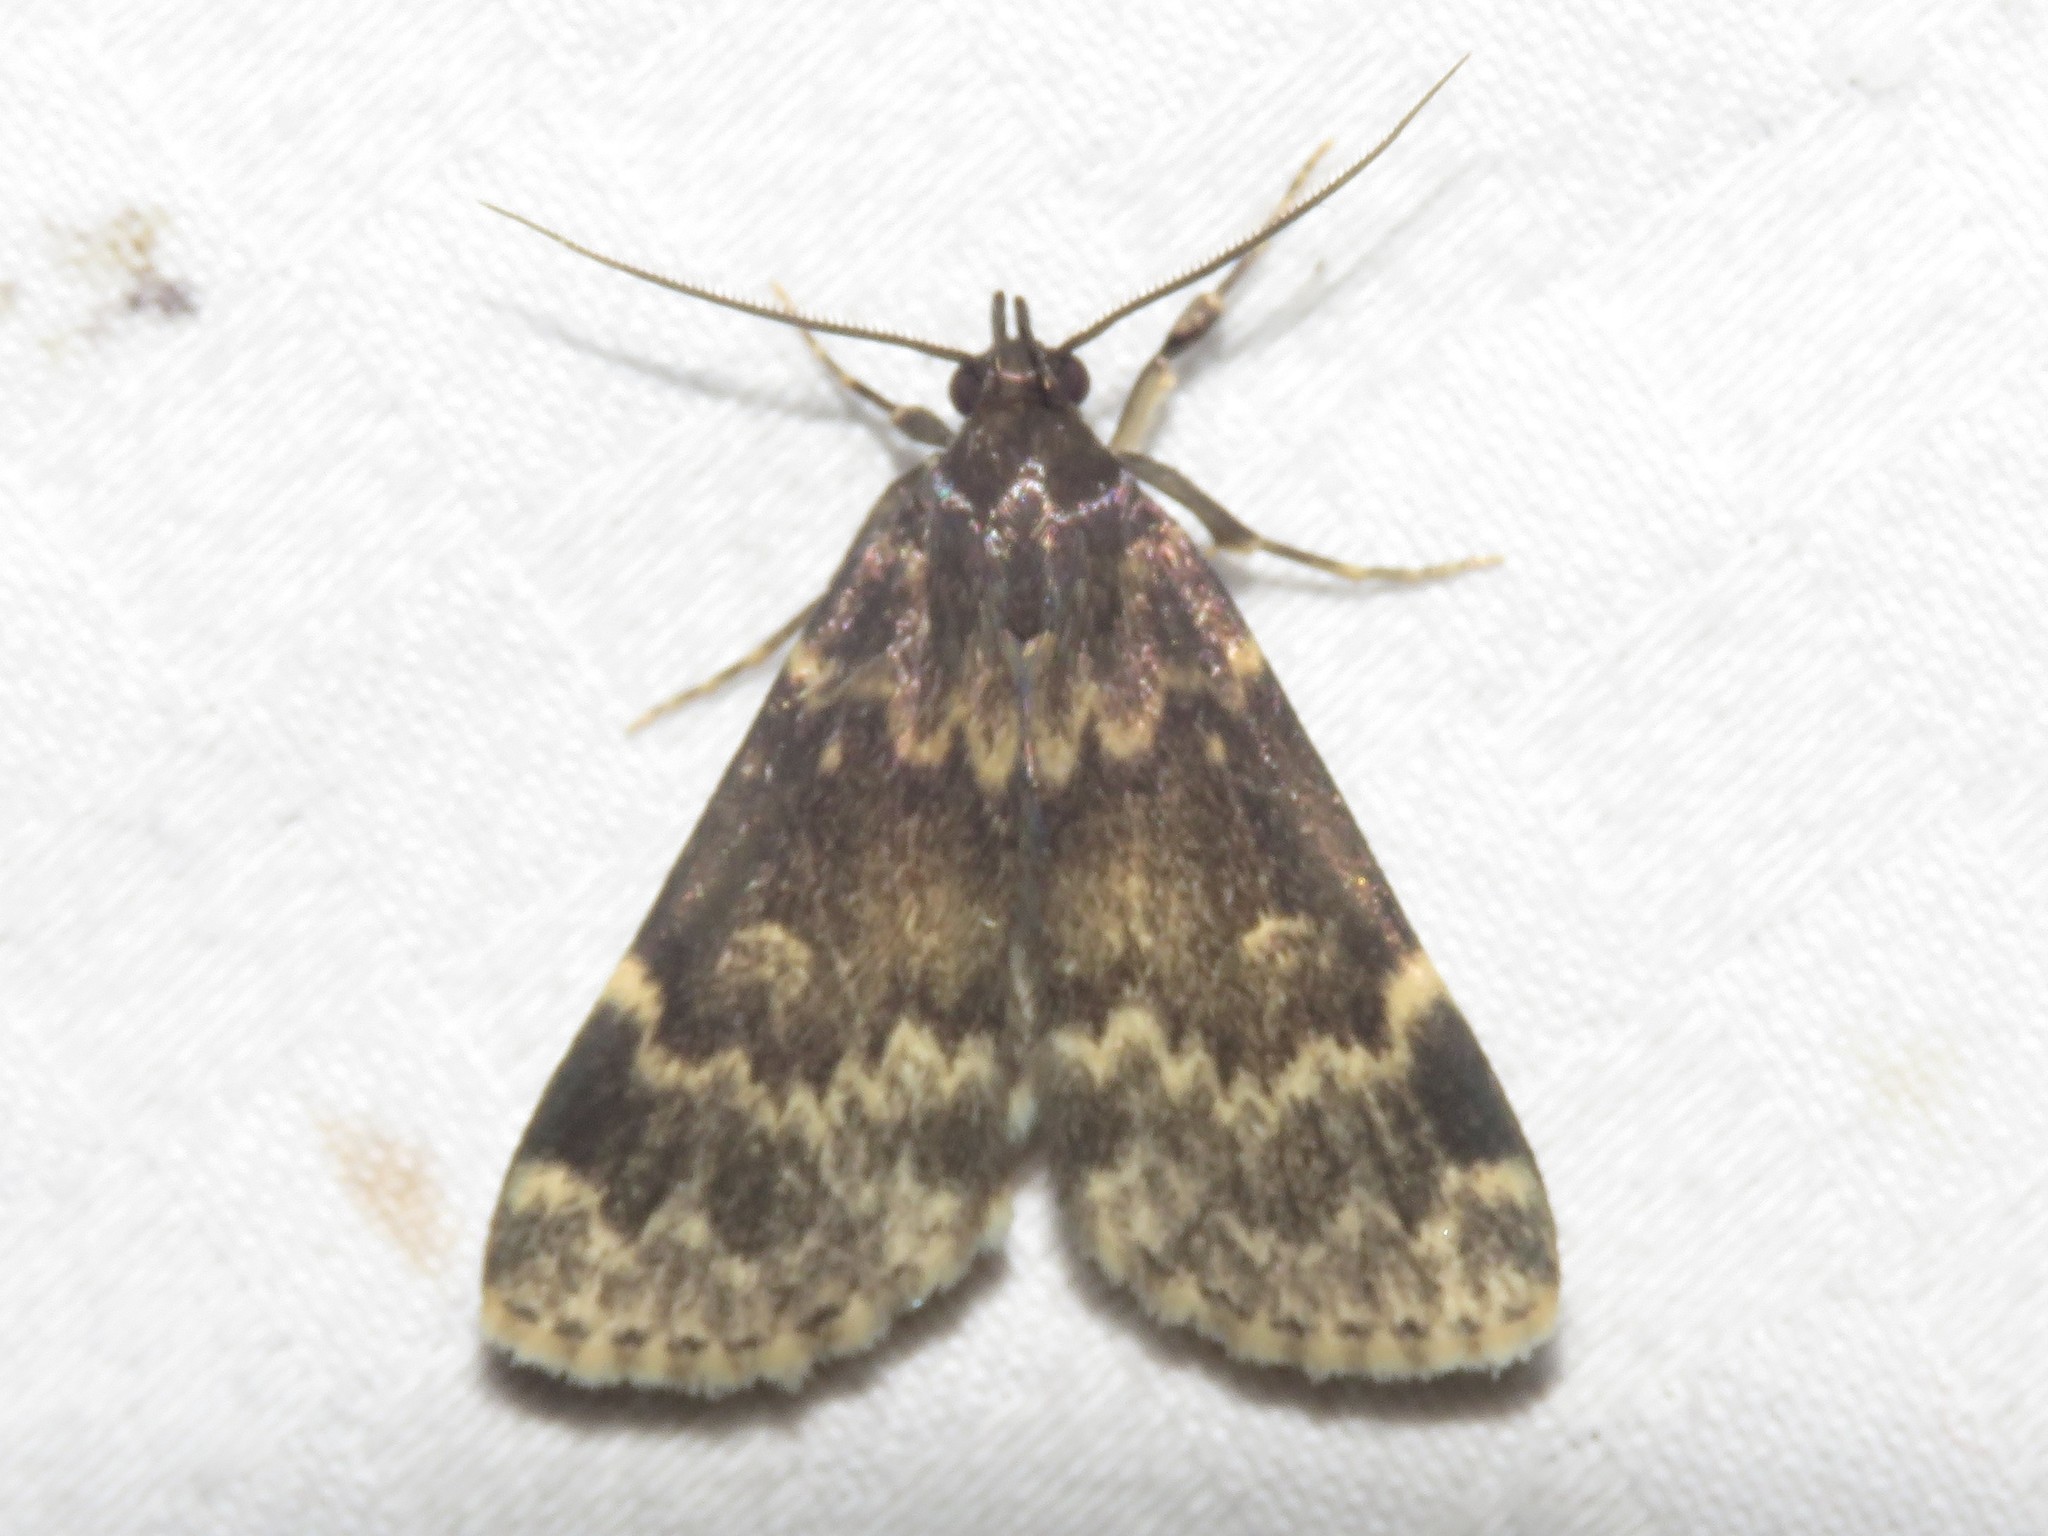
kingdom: Animalia
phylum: Arthropoda
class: Insecta
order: Lepidoptera
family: Erebidae
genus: Idia
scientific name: Idia lubricalis
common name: Twin-striped tabby
